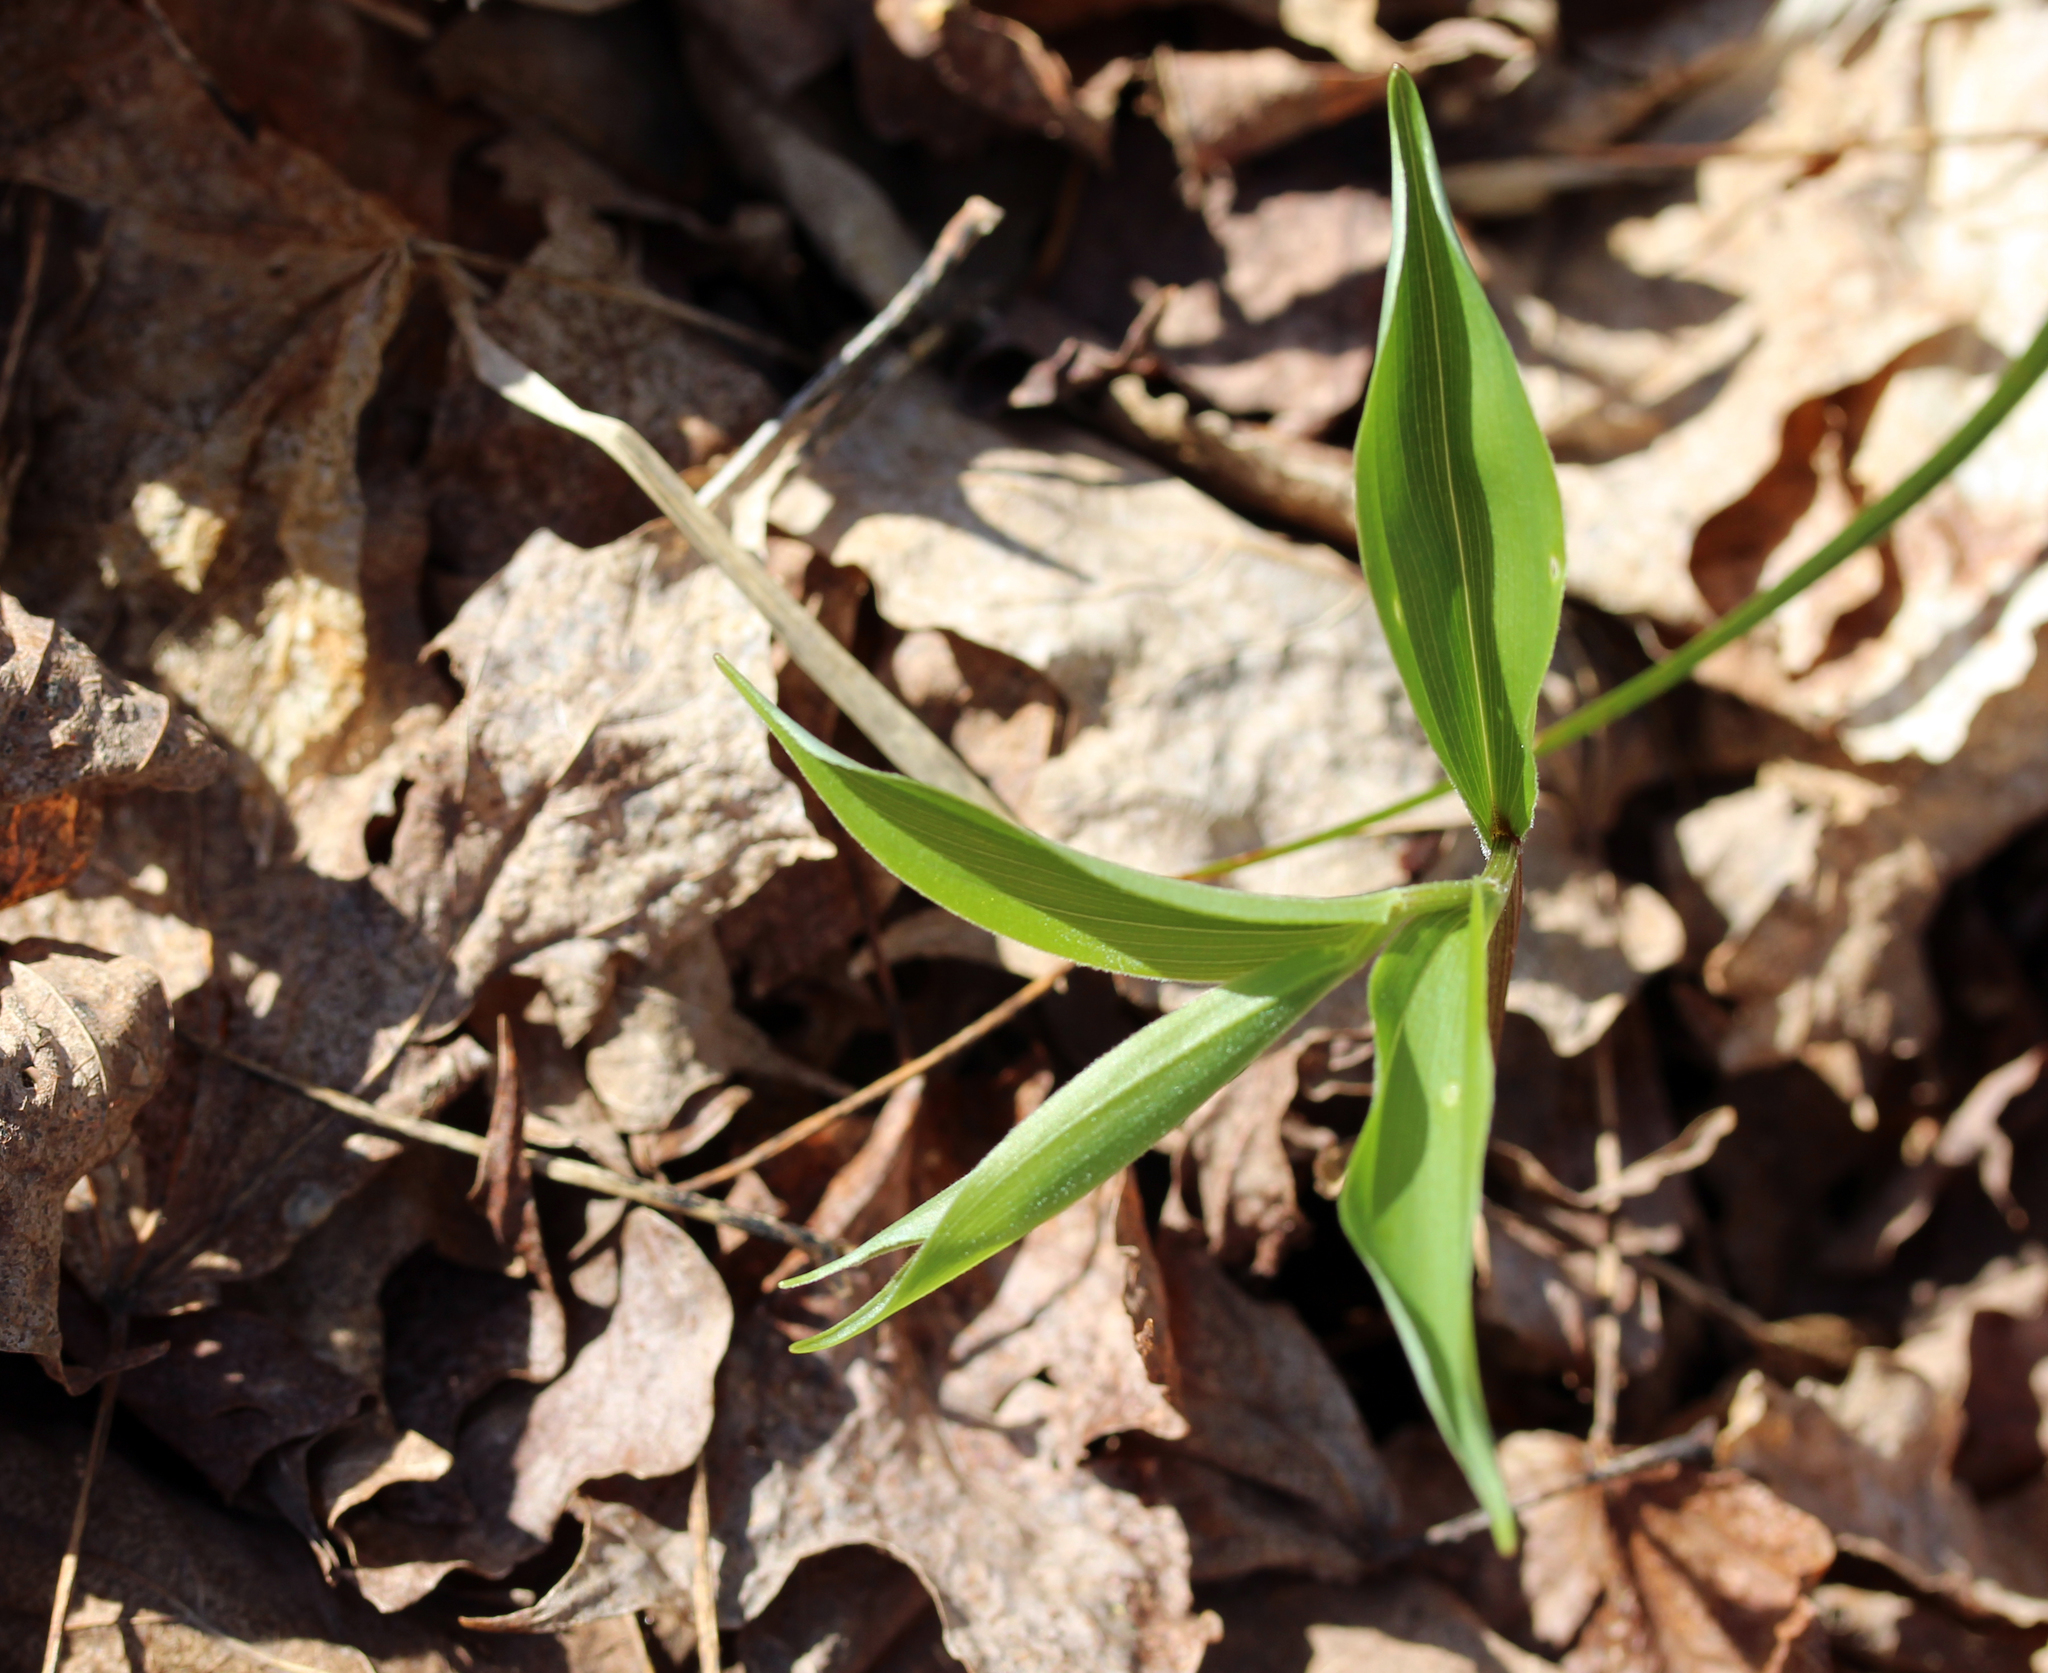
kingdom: Plantae
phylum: Tracheophyta
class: Liliopsida
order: Asparagales
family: Asparagaceae
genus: Maianthemum
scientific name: Maianthemum racemosum
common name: False spikenard
